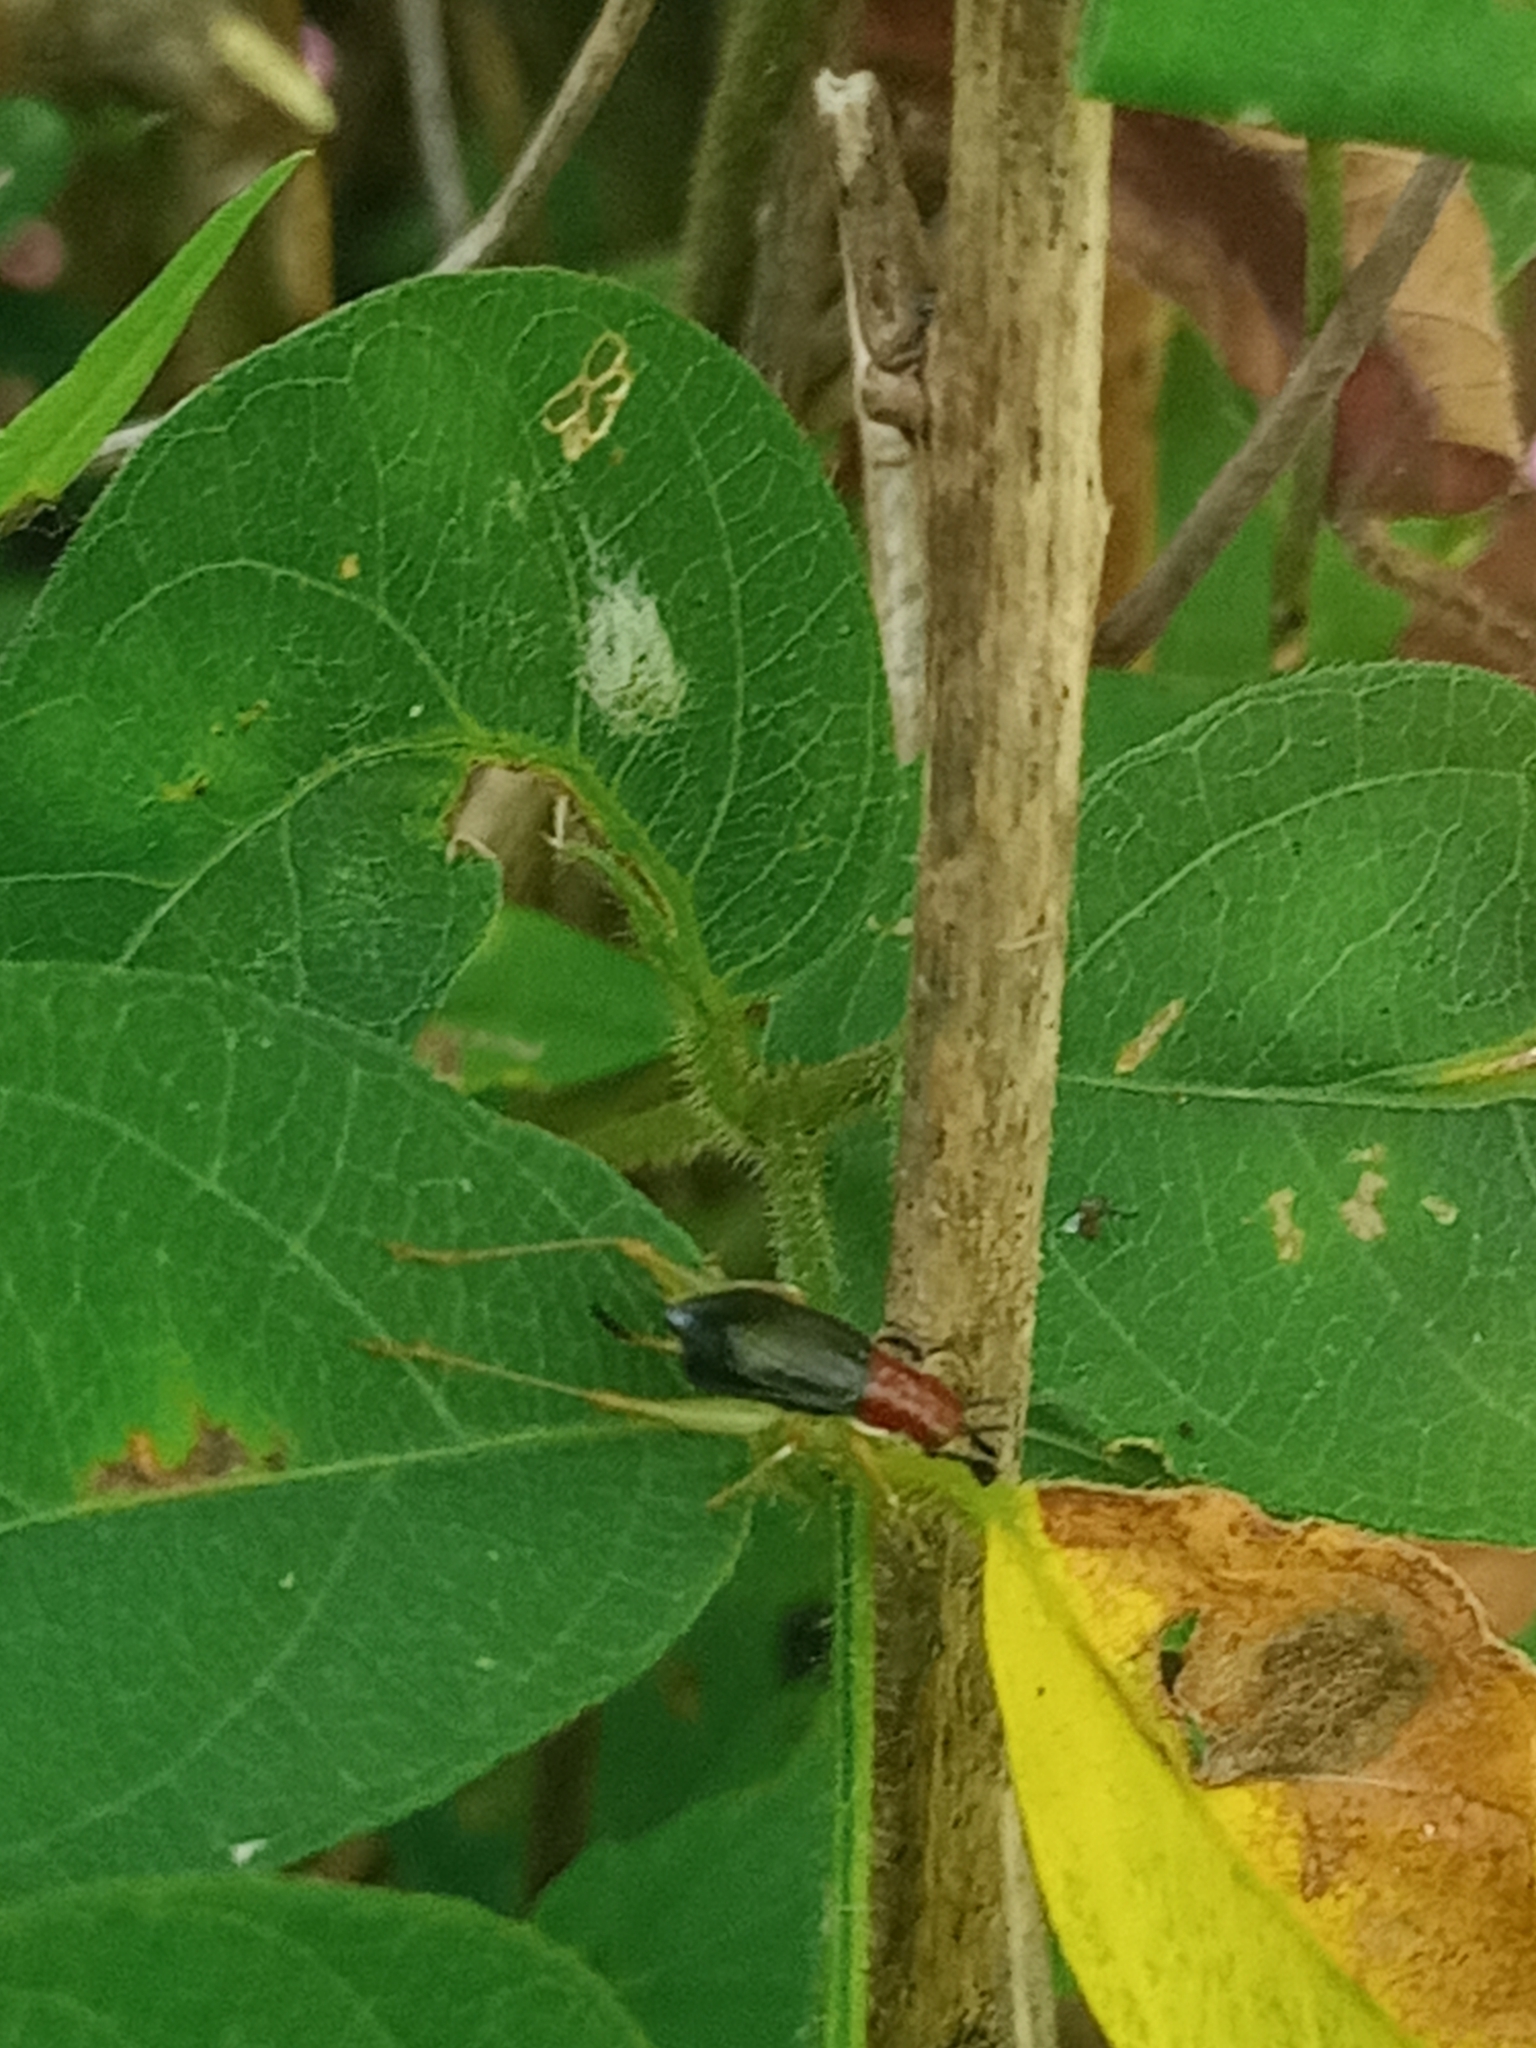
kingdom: Animalia
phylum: Arthropoda
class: Insecta
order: Orthoptera
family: Trigonidiidae
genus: Phyllopalpus
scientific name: Phyllopalpus pulchellus
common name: Handsome trig
